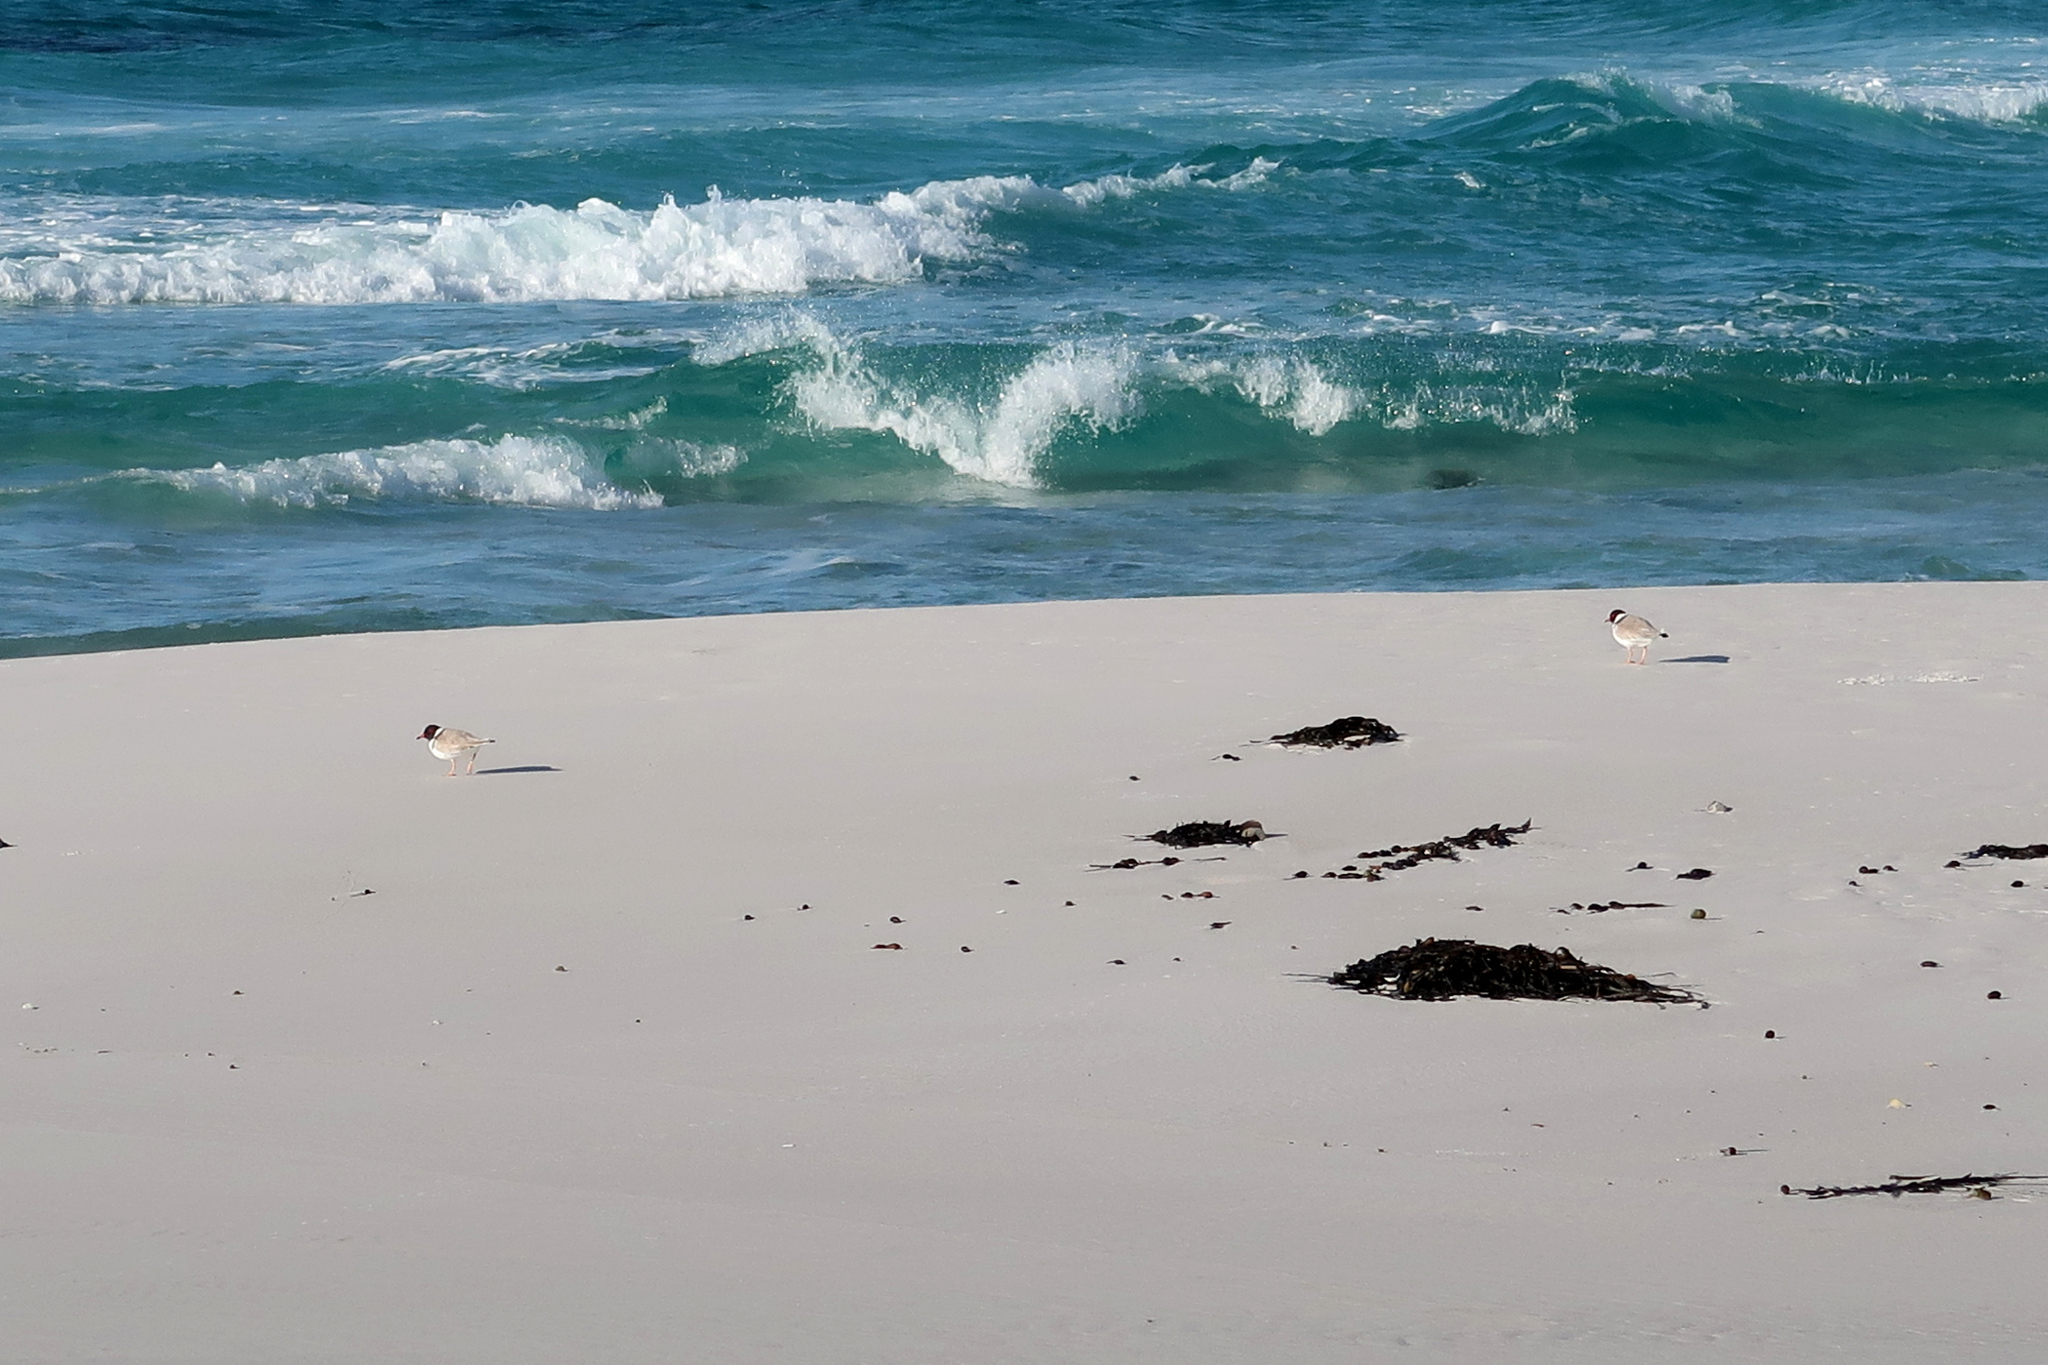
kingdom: Animalia
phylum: Chordata
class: Aves
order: Charadriiformes
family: Charadriidae
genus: Thinornis
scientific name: Thinornis cucullatus
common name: Hooded dotterel
